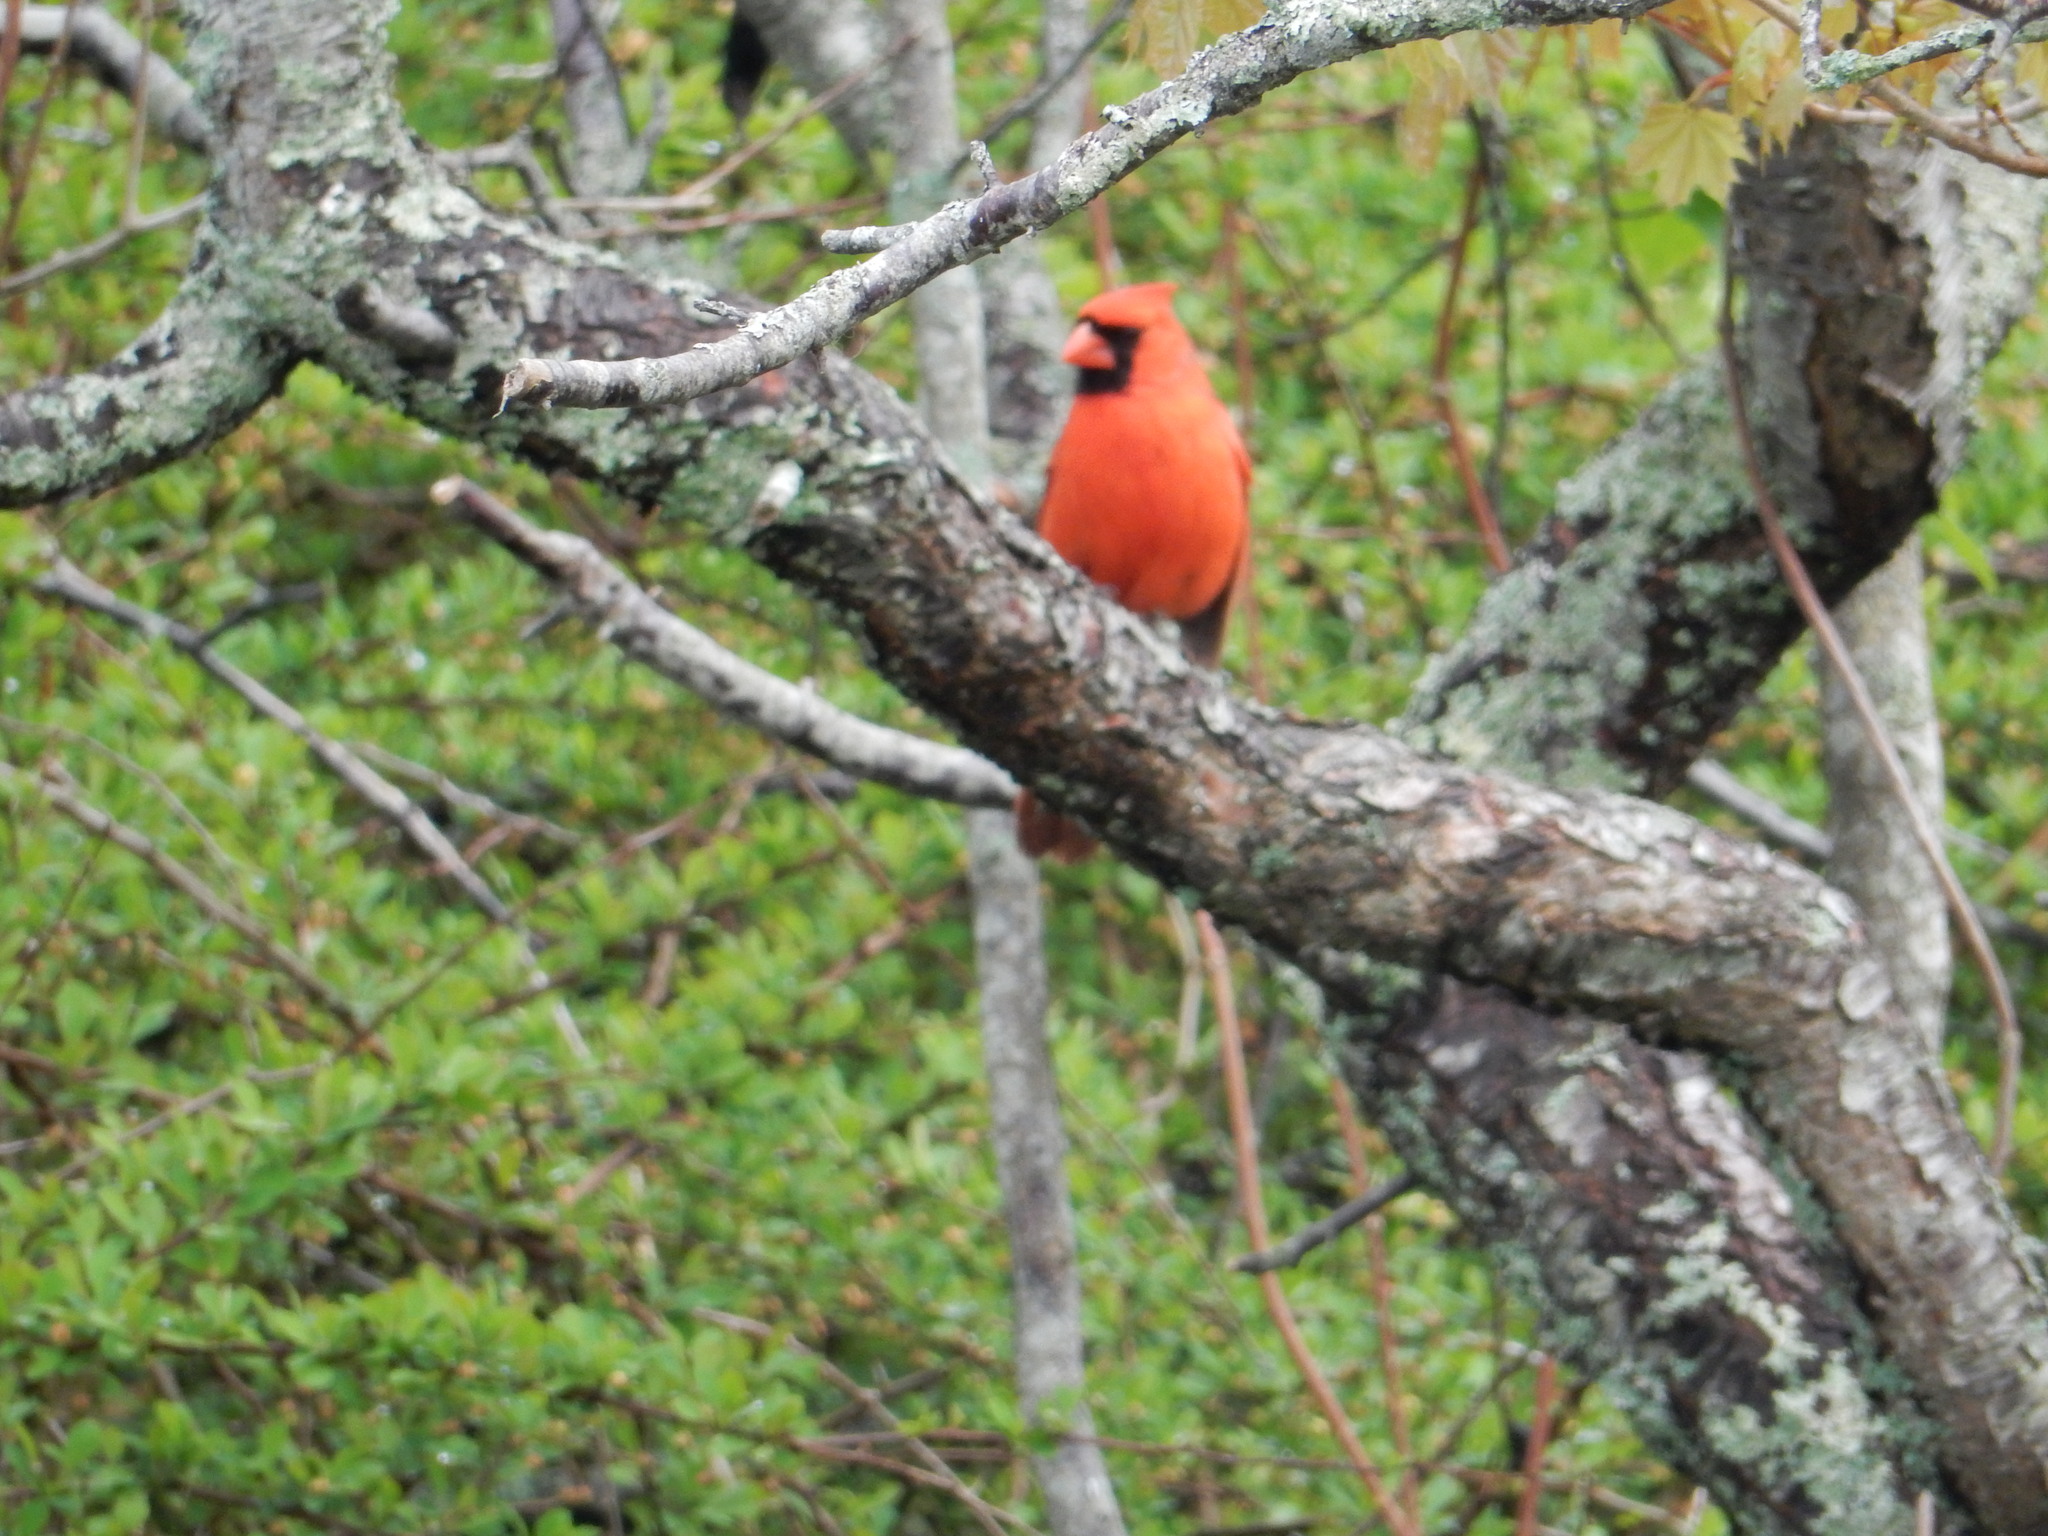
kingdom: Animalia
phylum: Chordata
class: Aves
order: Passeriformes
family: Cardinalidae
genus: Cardinalis
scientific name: Cardinalis cardinalis
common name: Northern cardinal
